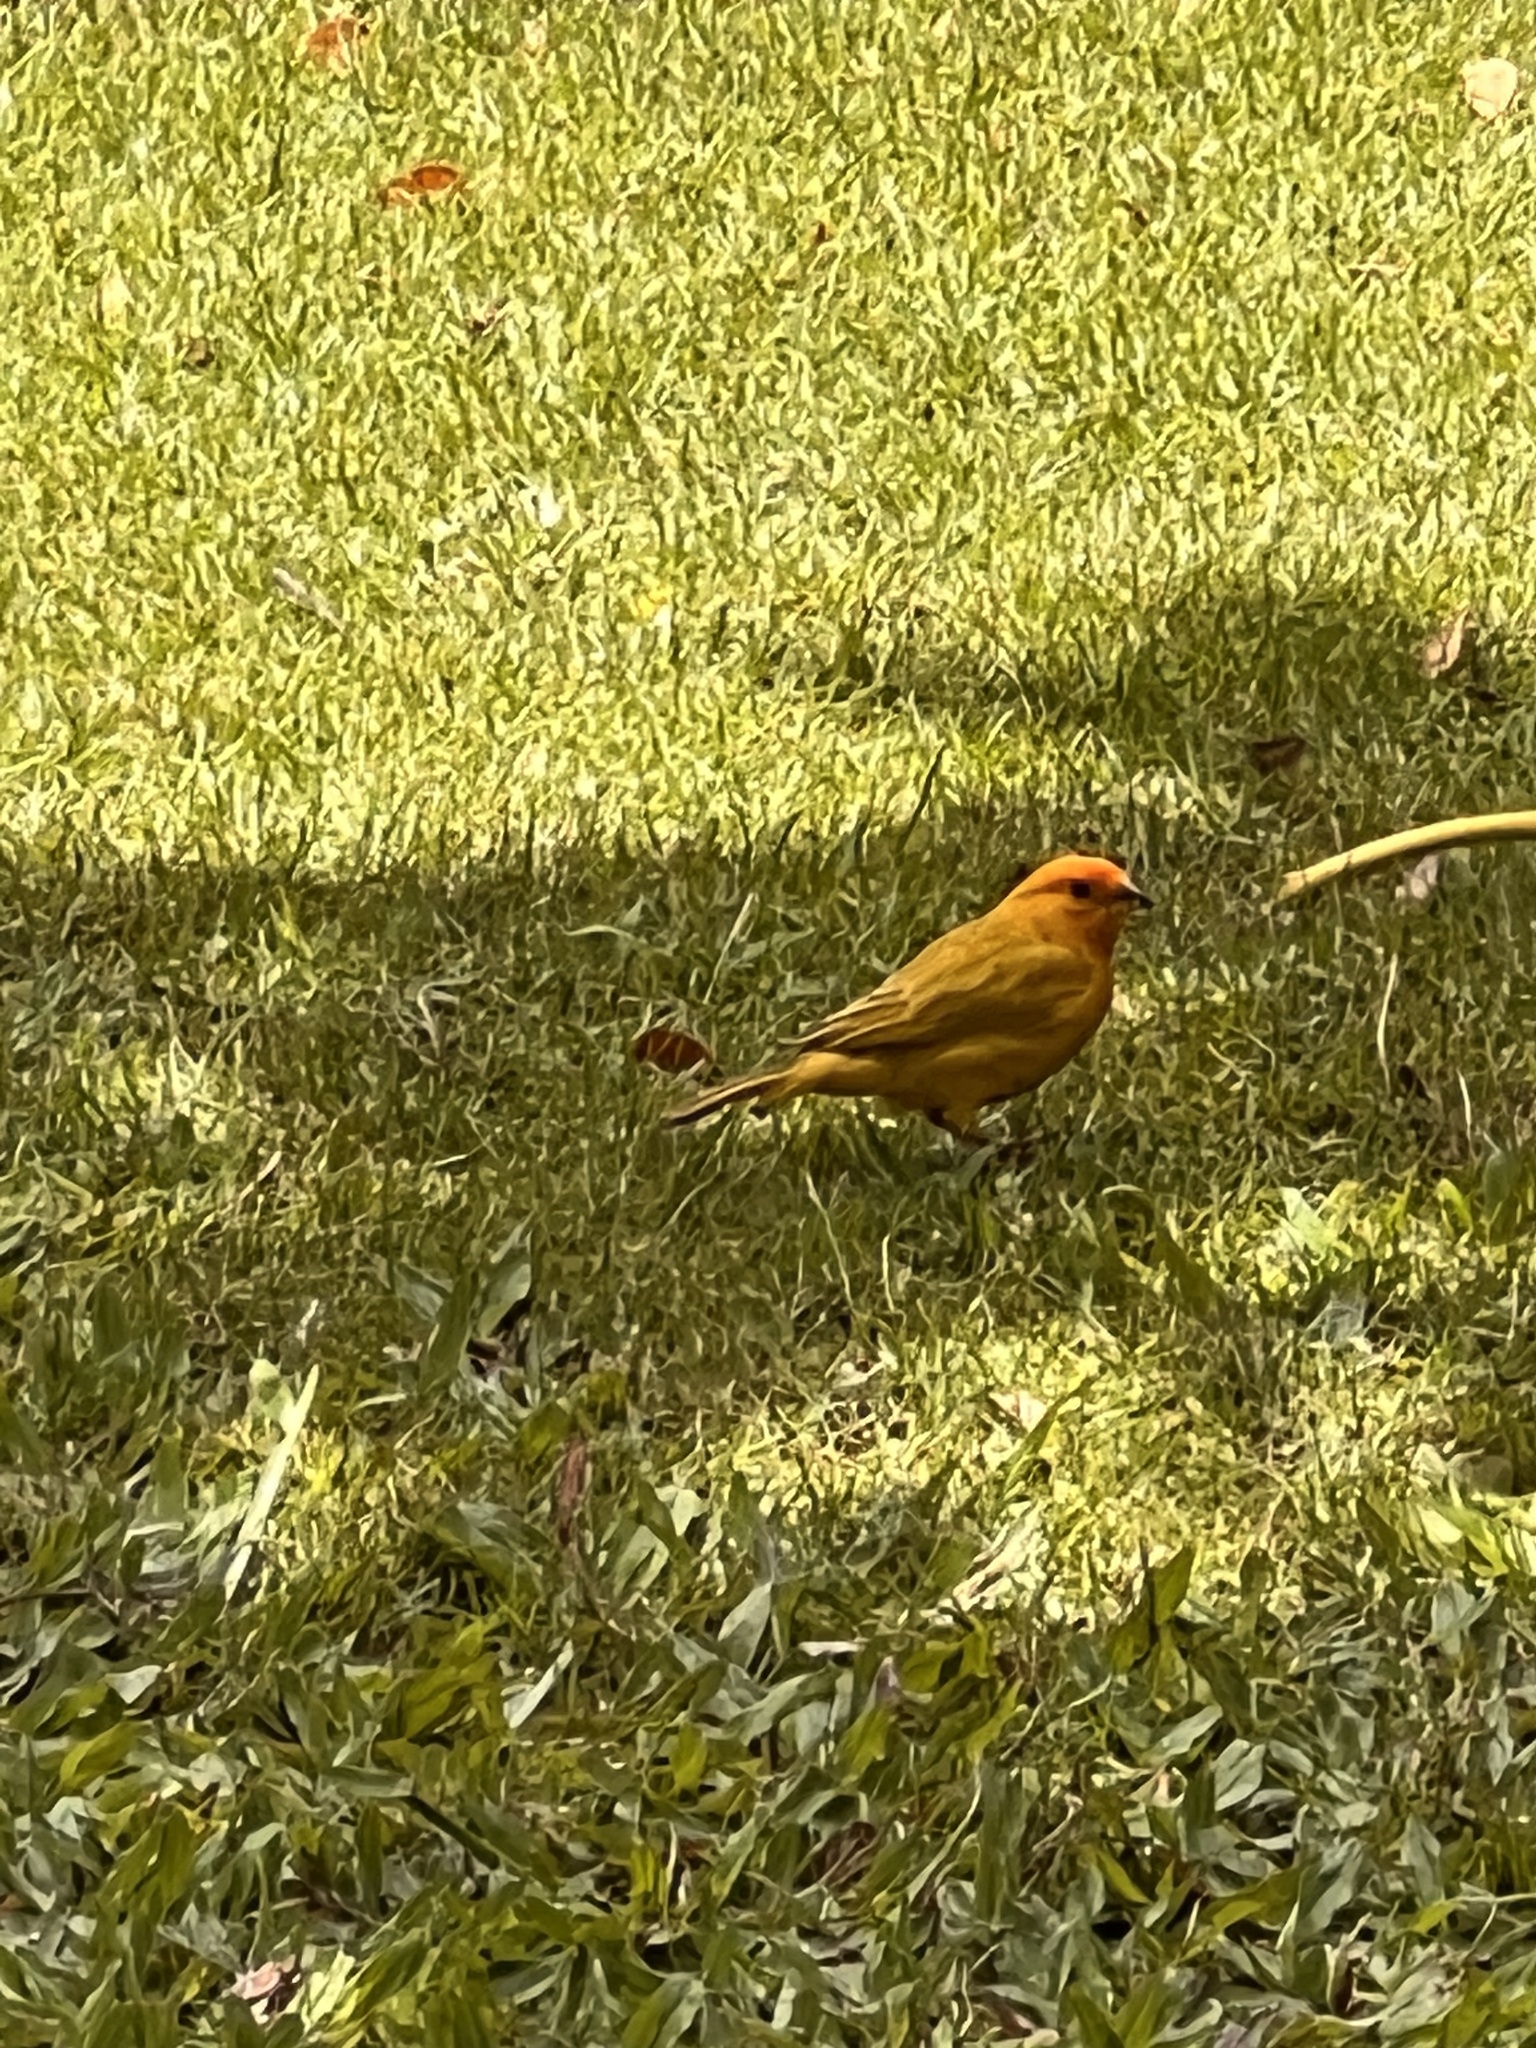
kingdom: Animalia
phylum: Chordata
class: Aves
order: Passeriformes
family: Thraupidae
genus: Sicalis
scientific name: Sicalis flaveola
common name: Saffron finch
